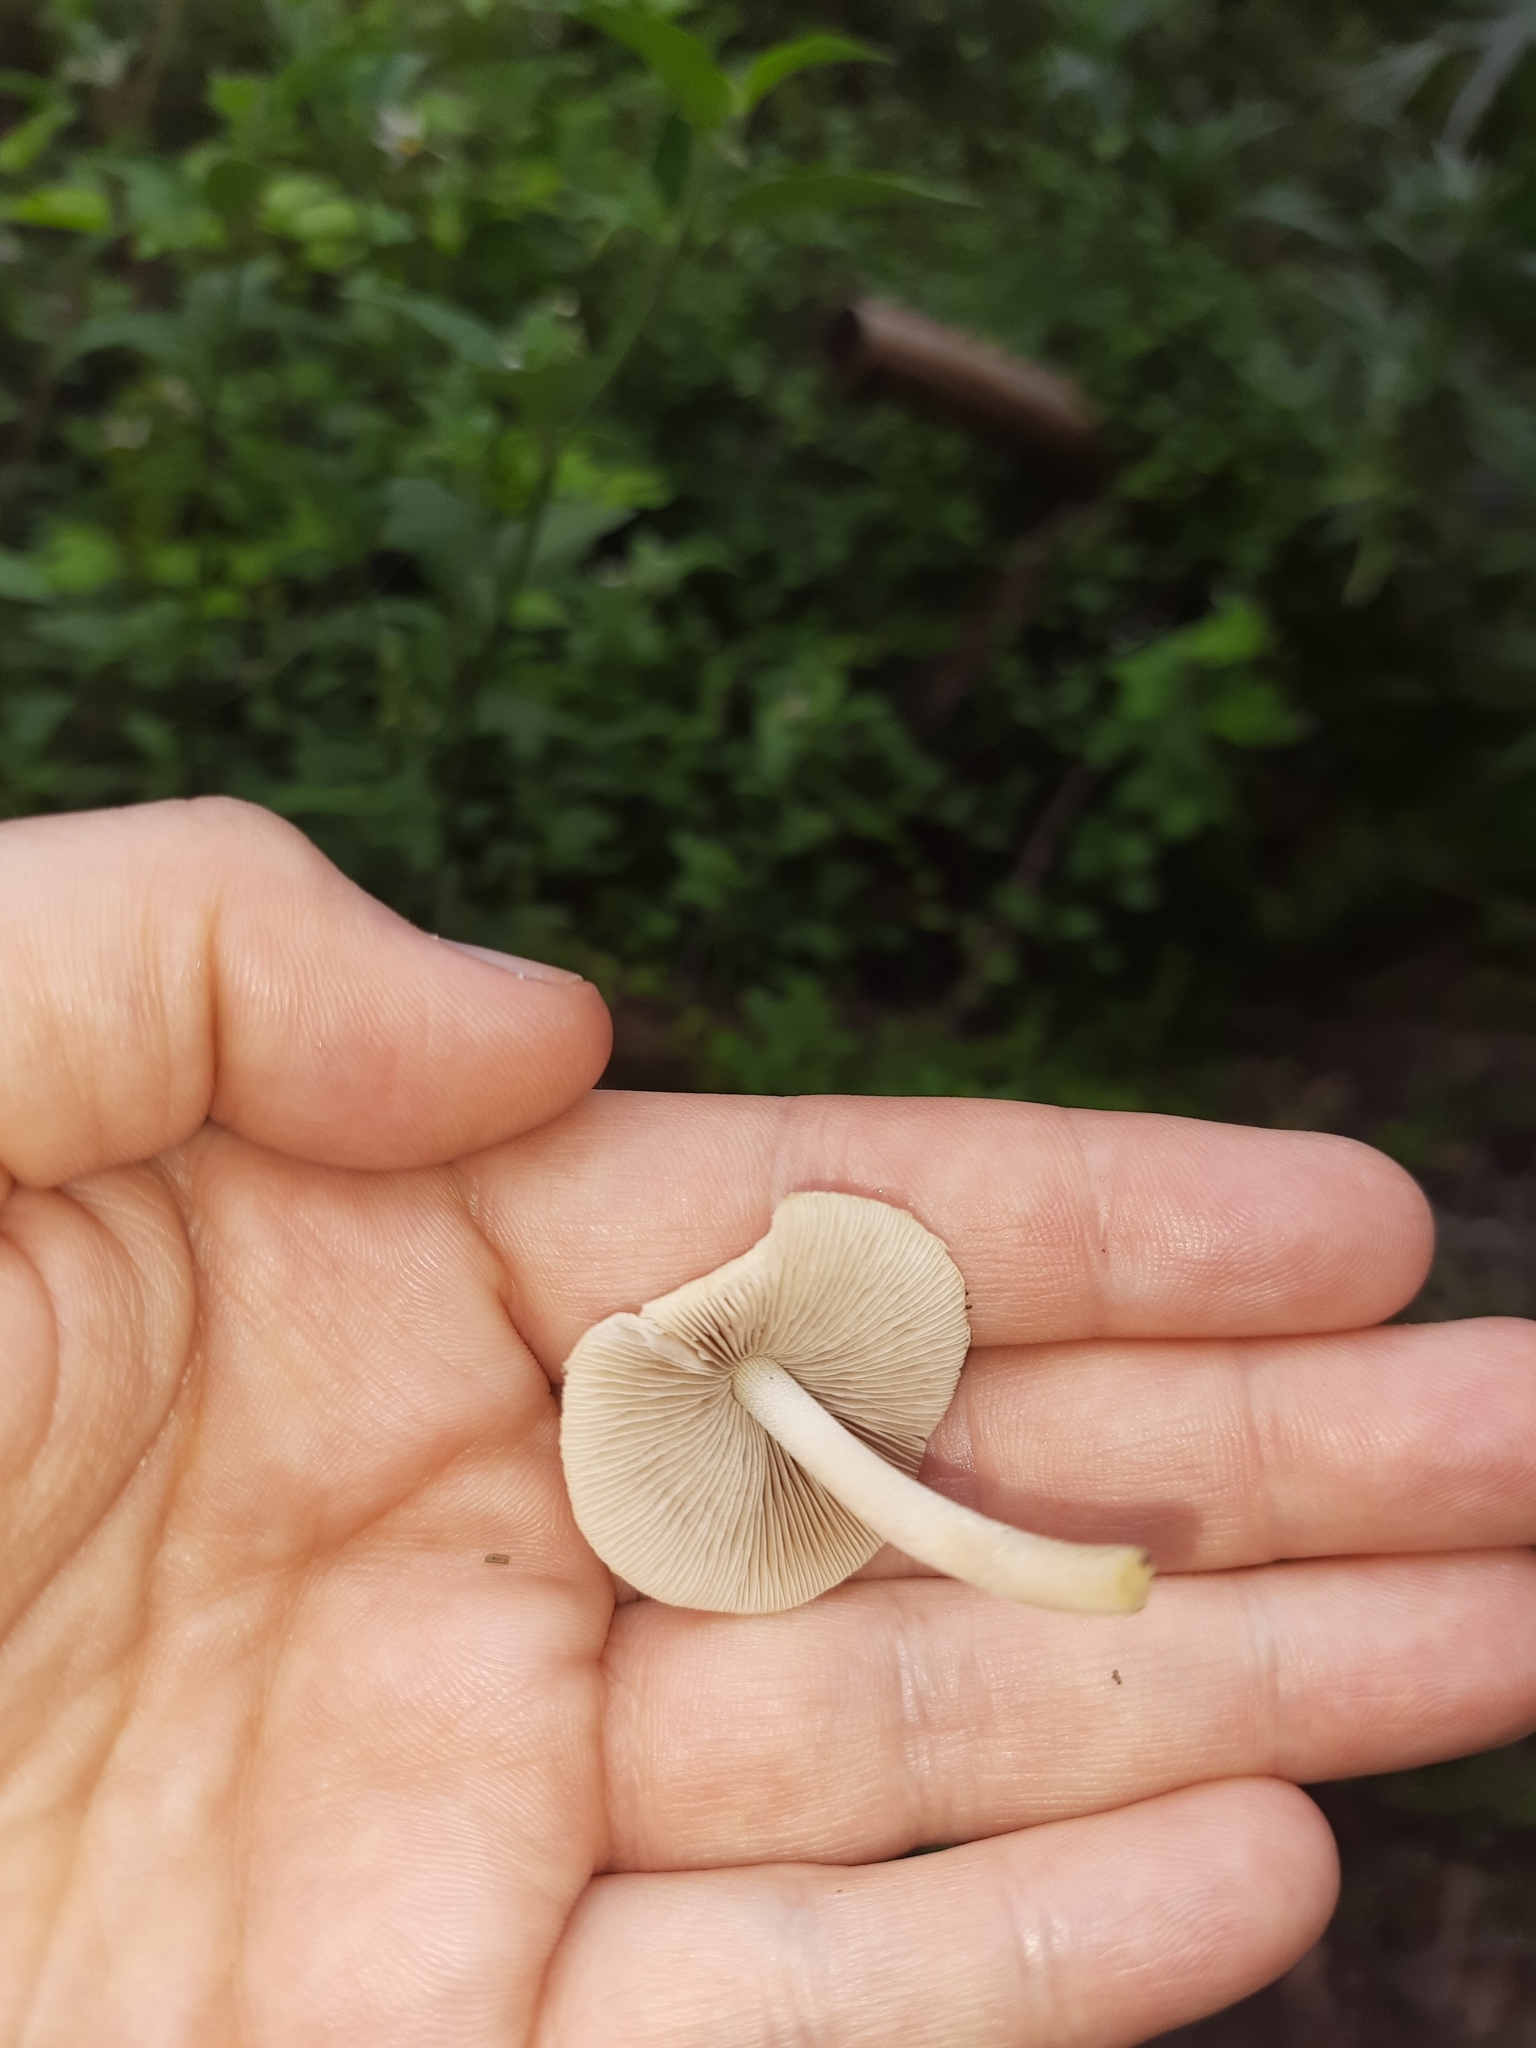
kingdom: Fungi
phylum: Basidiomycota
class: Agaricomycetes
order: Agaricales
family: Psathyrellaceae
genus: Candolleomyces
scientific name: Candolleomyces candolleanus
